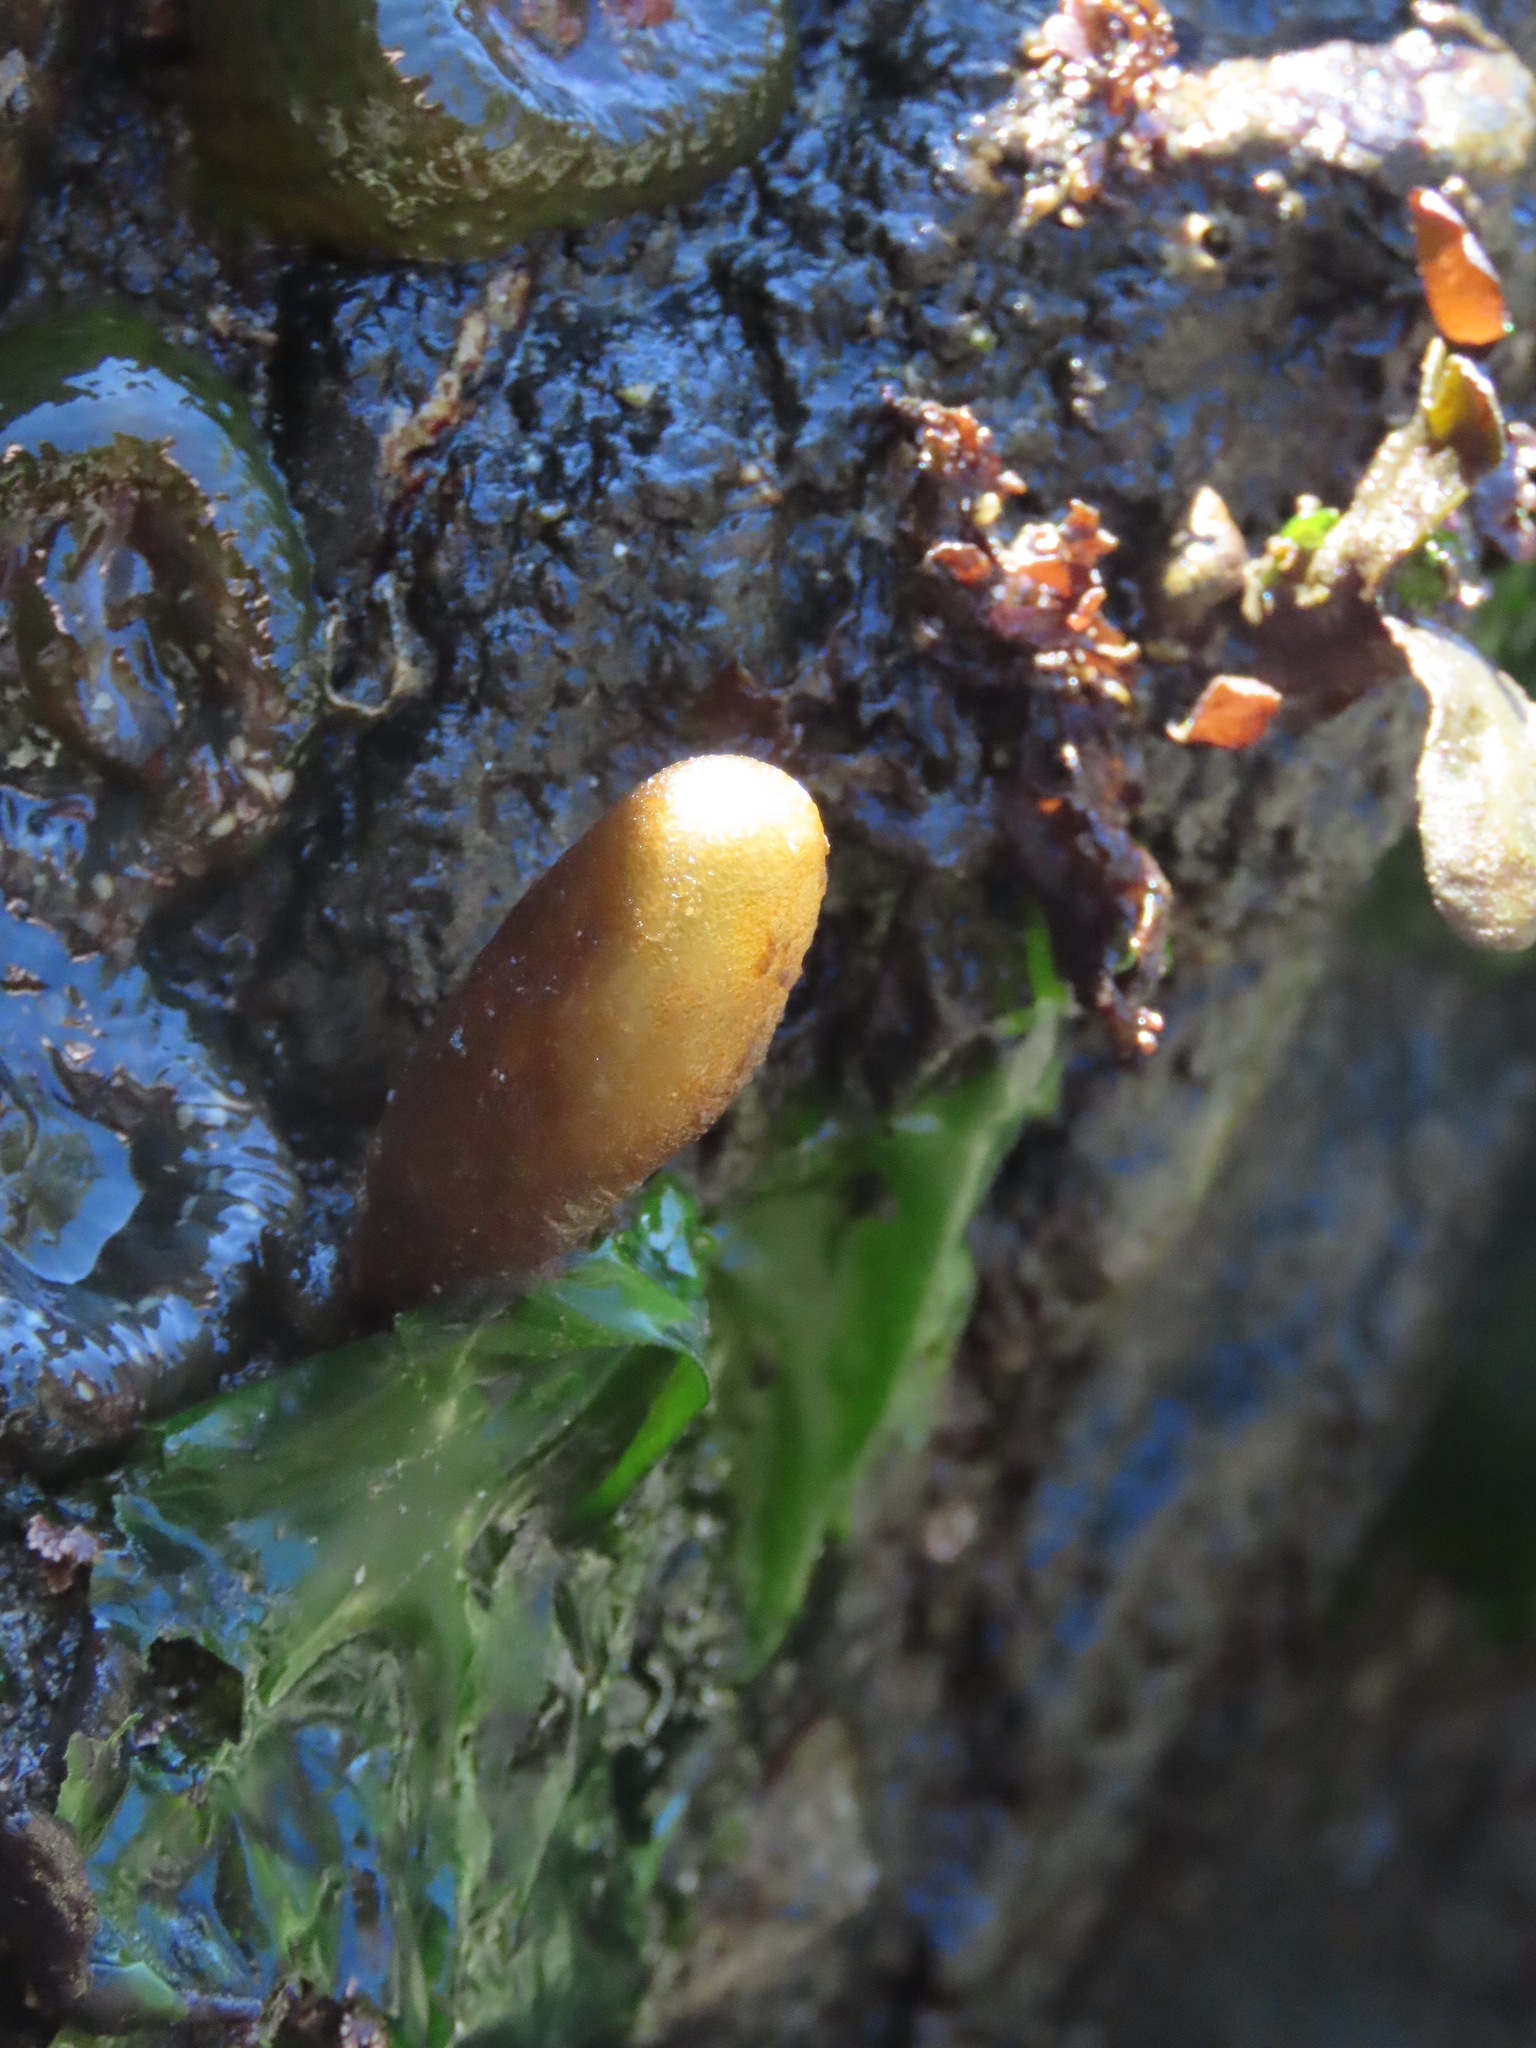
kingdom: Plantae
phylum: Rhodophyta
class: Florideophyceae
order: Palmariales
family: Palmariaceae
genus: Halosaccion
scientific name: Halosaccion glandiforme
